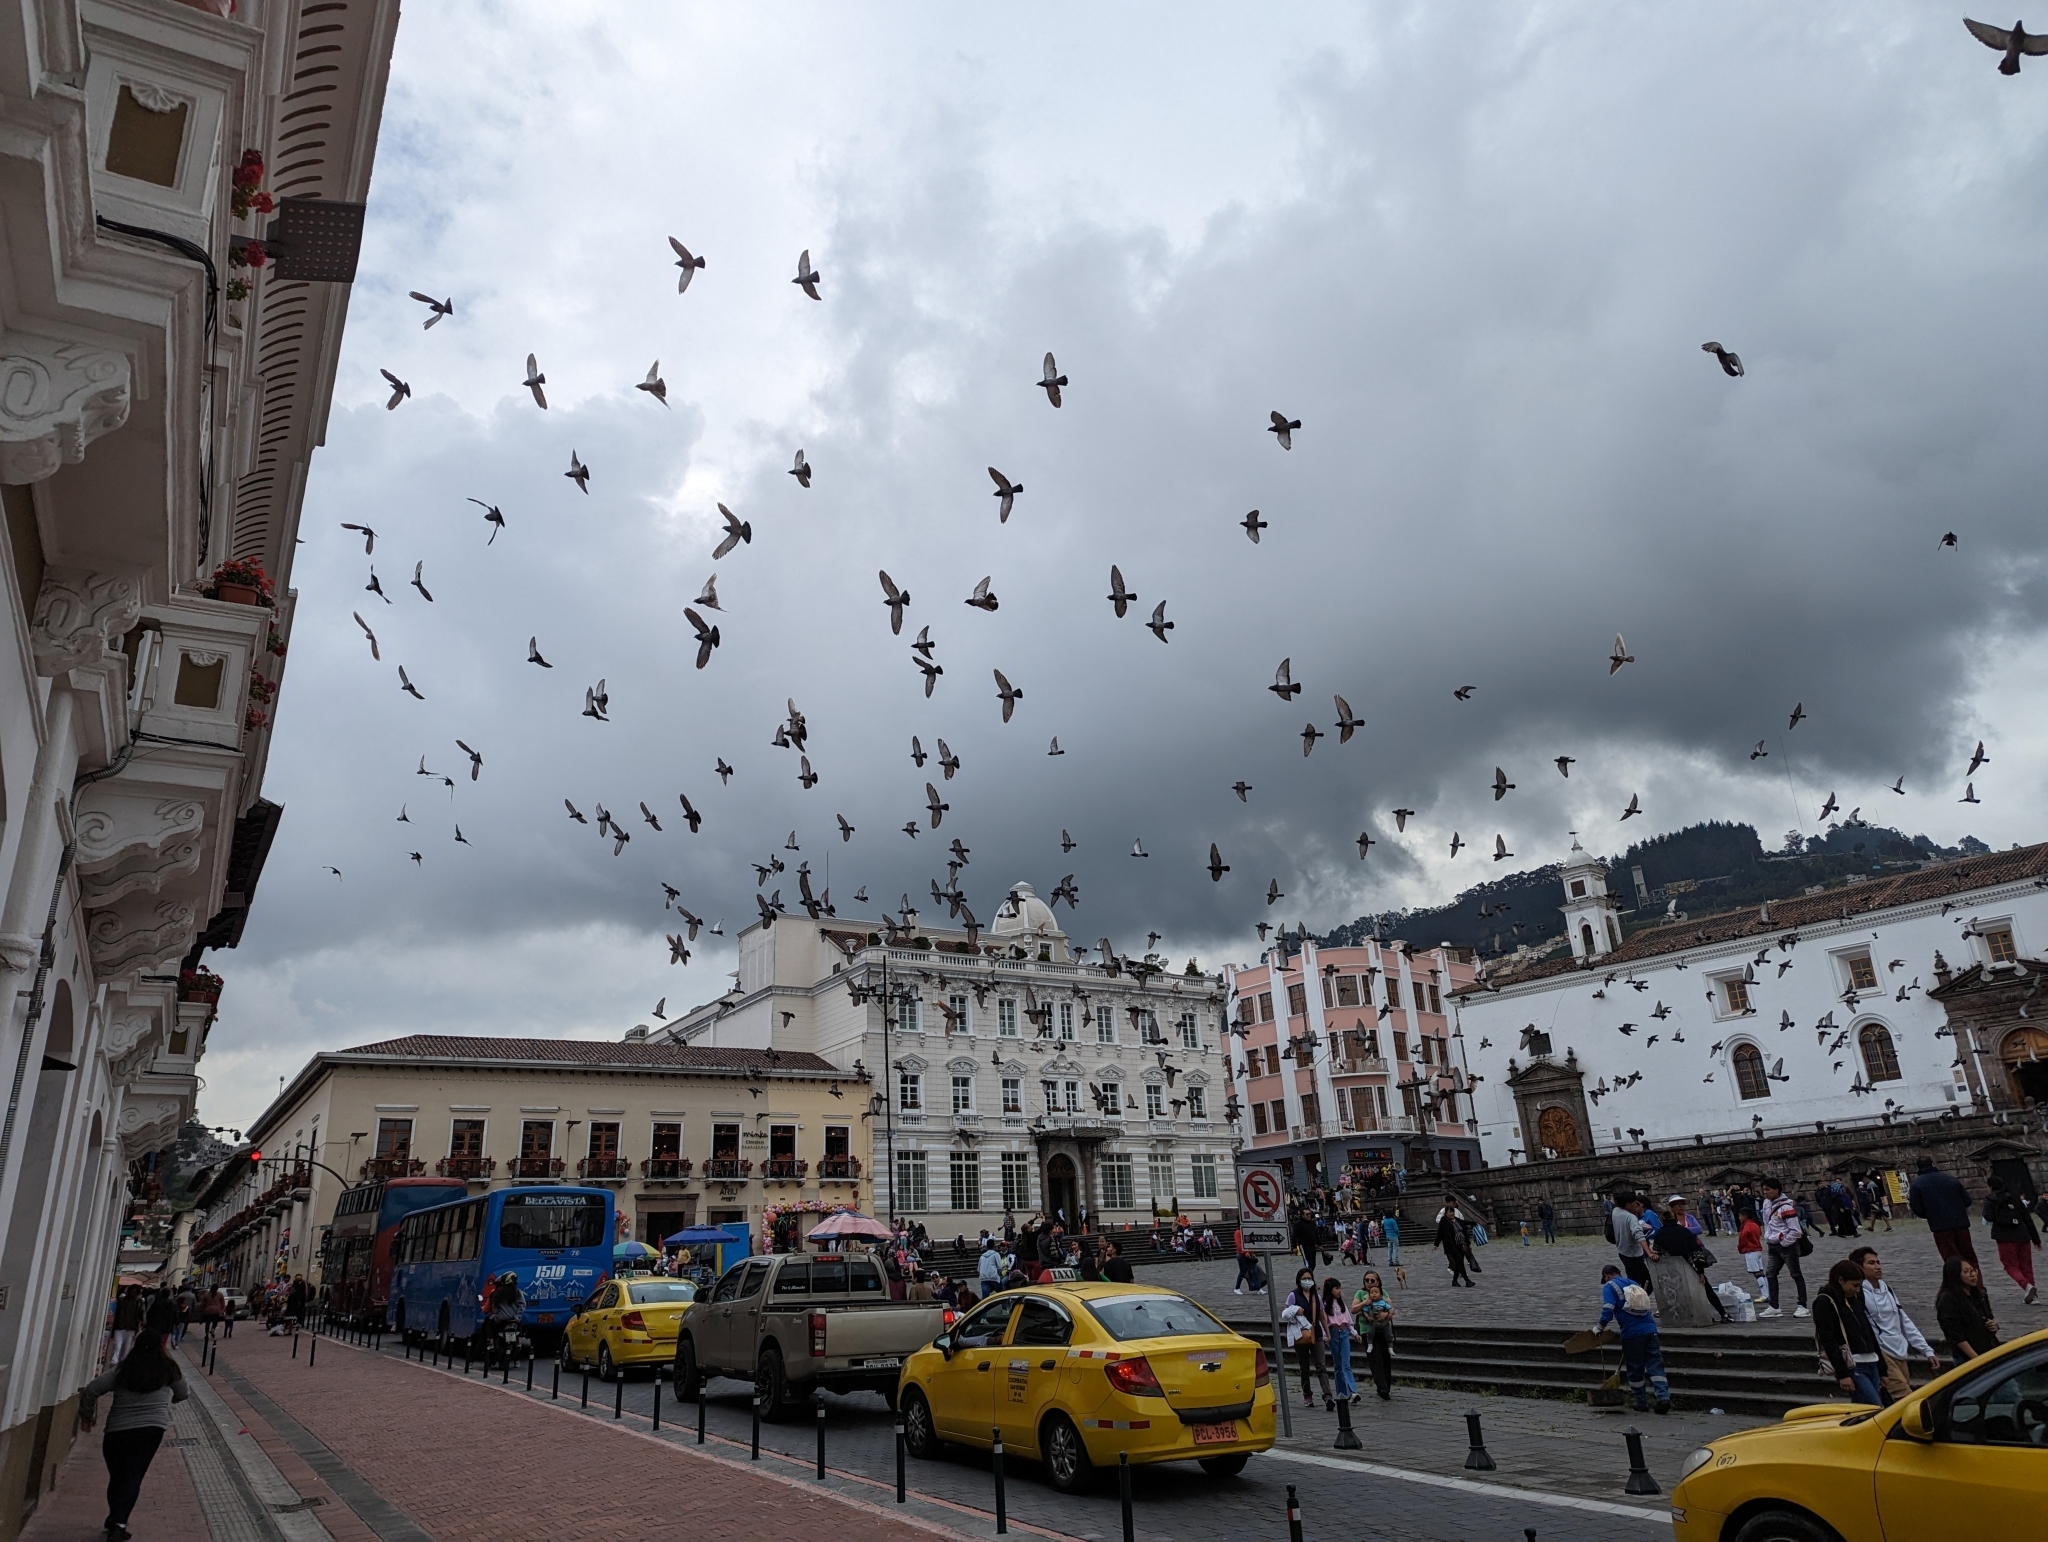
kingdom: Animalia
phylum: Chordata
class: Aves
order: Columbiformes
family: Columbidae
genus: Columba
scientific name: Columba livia
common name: Rock pigeon
